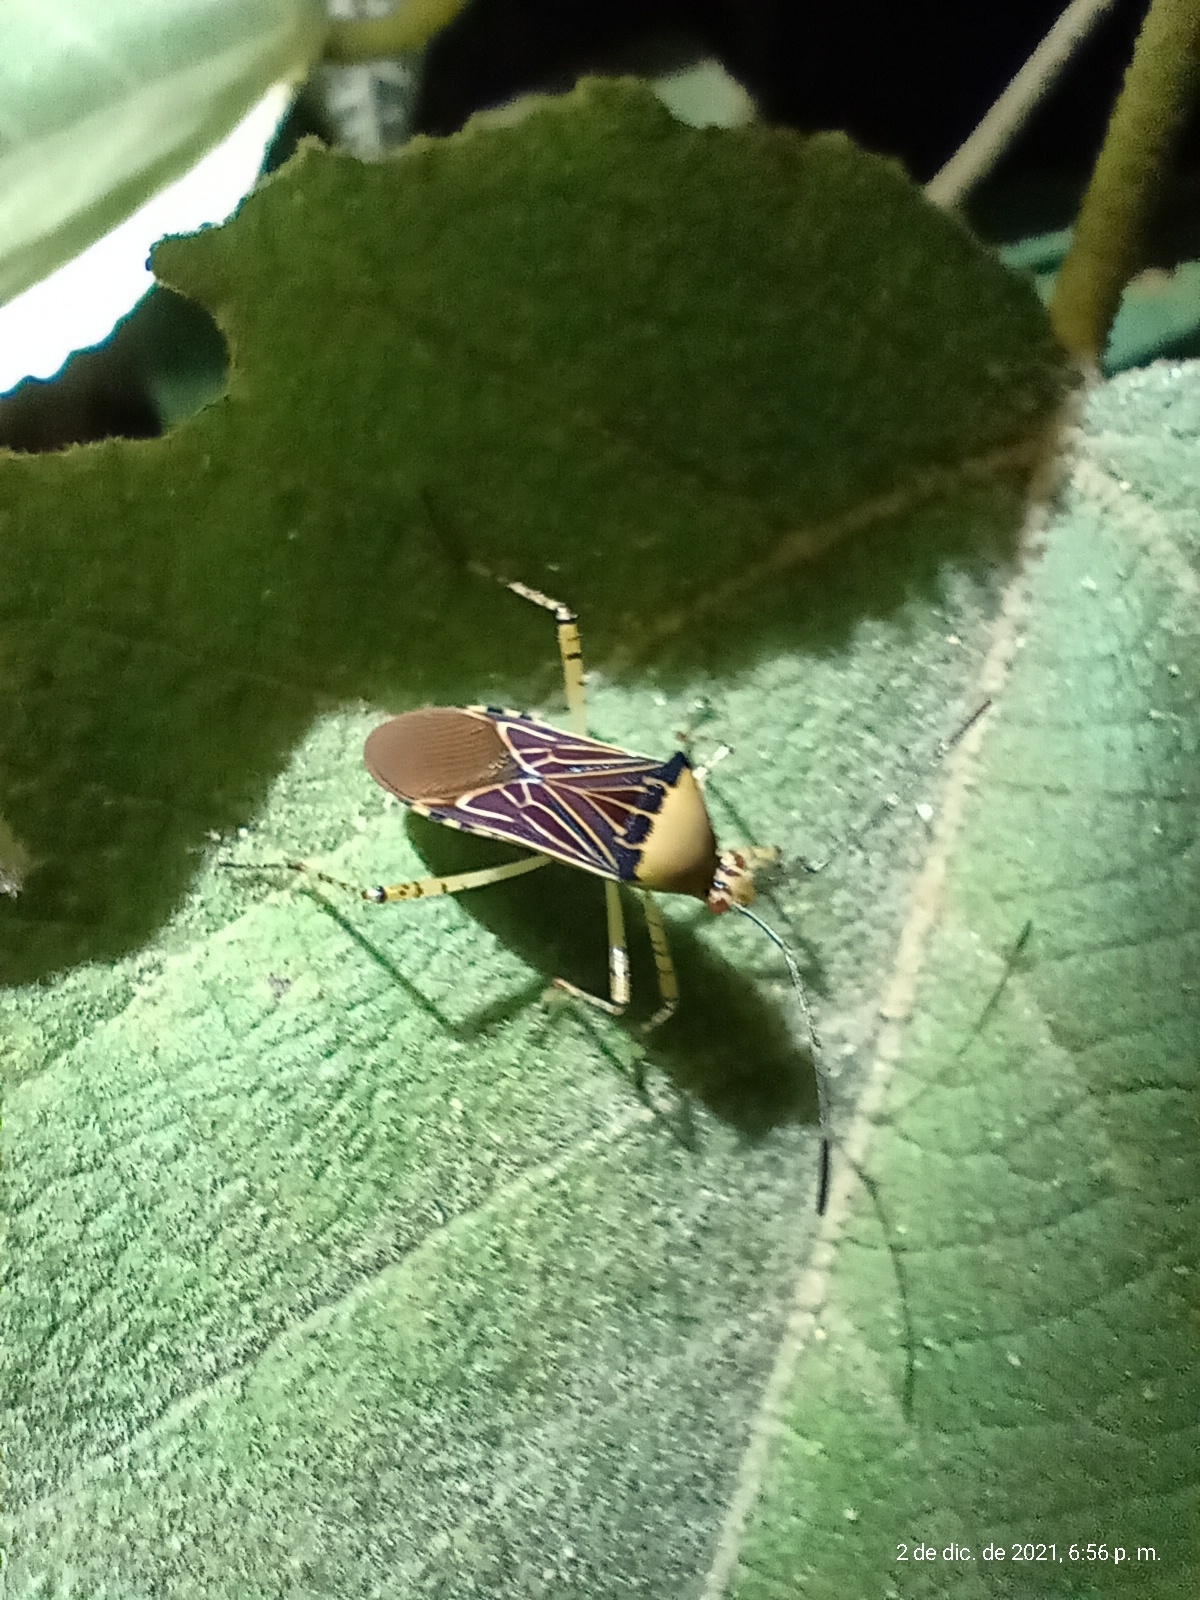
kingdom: Animalia
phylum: Arthropoda
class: Insecta
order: Hemiptera
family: Coreidae
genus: Hypselonotus
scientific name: Hypselonotus
